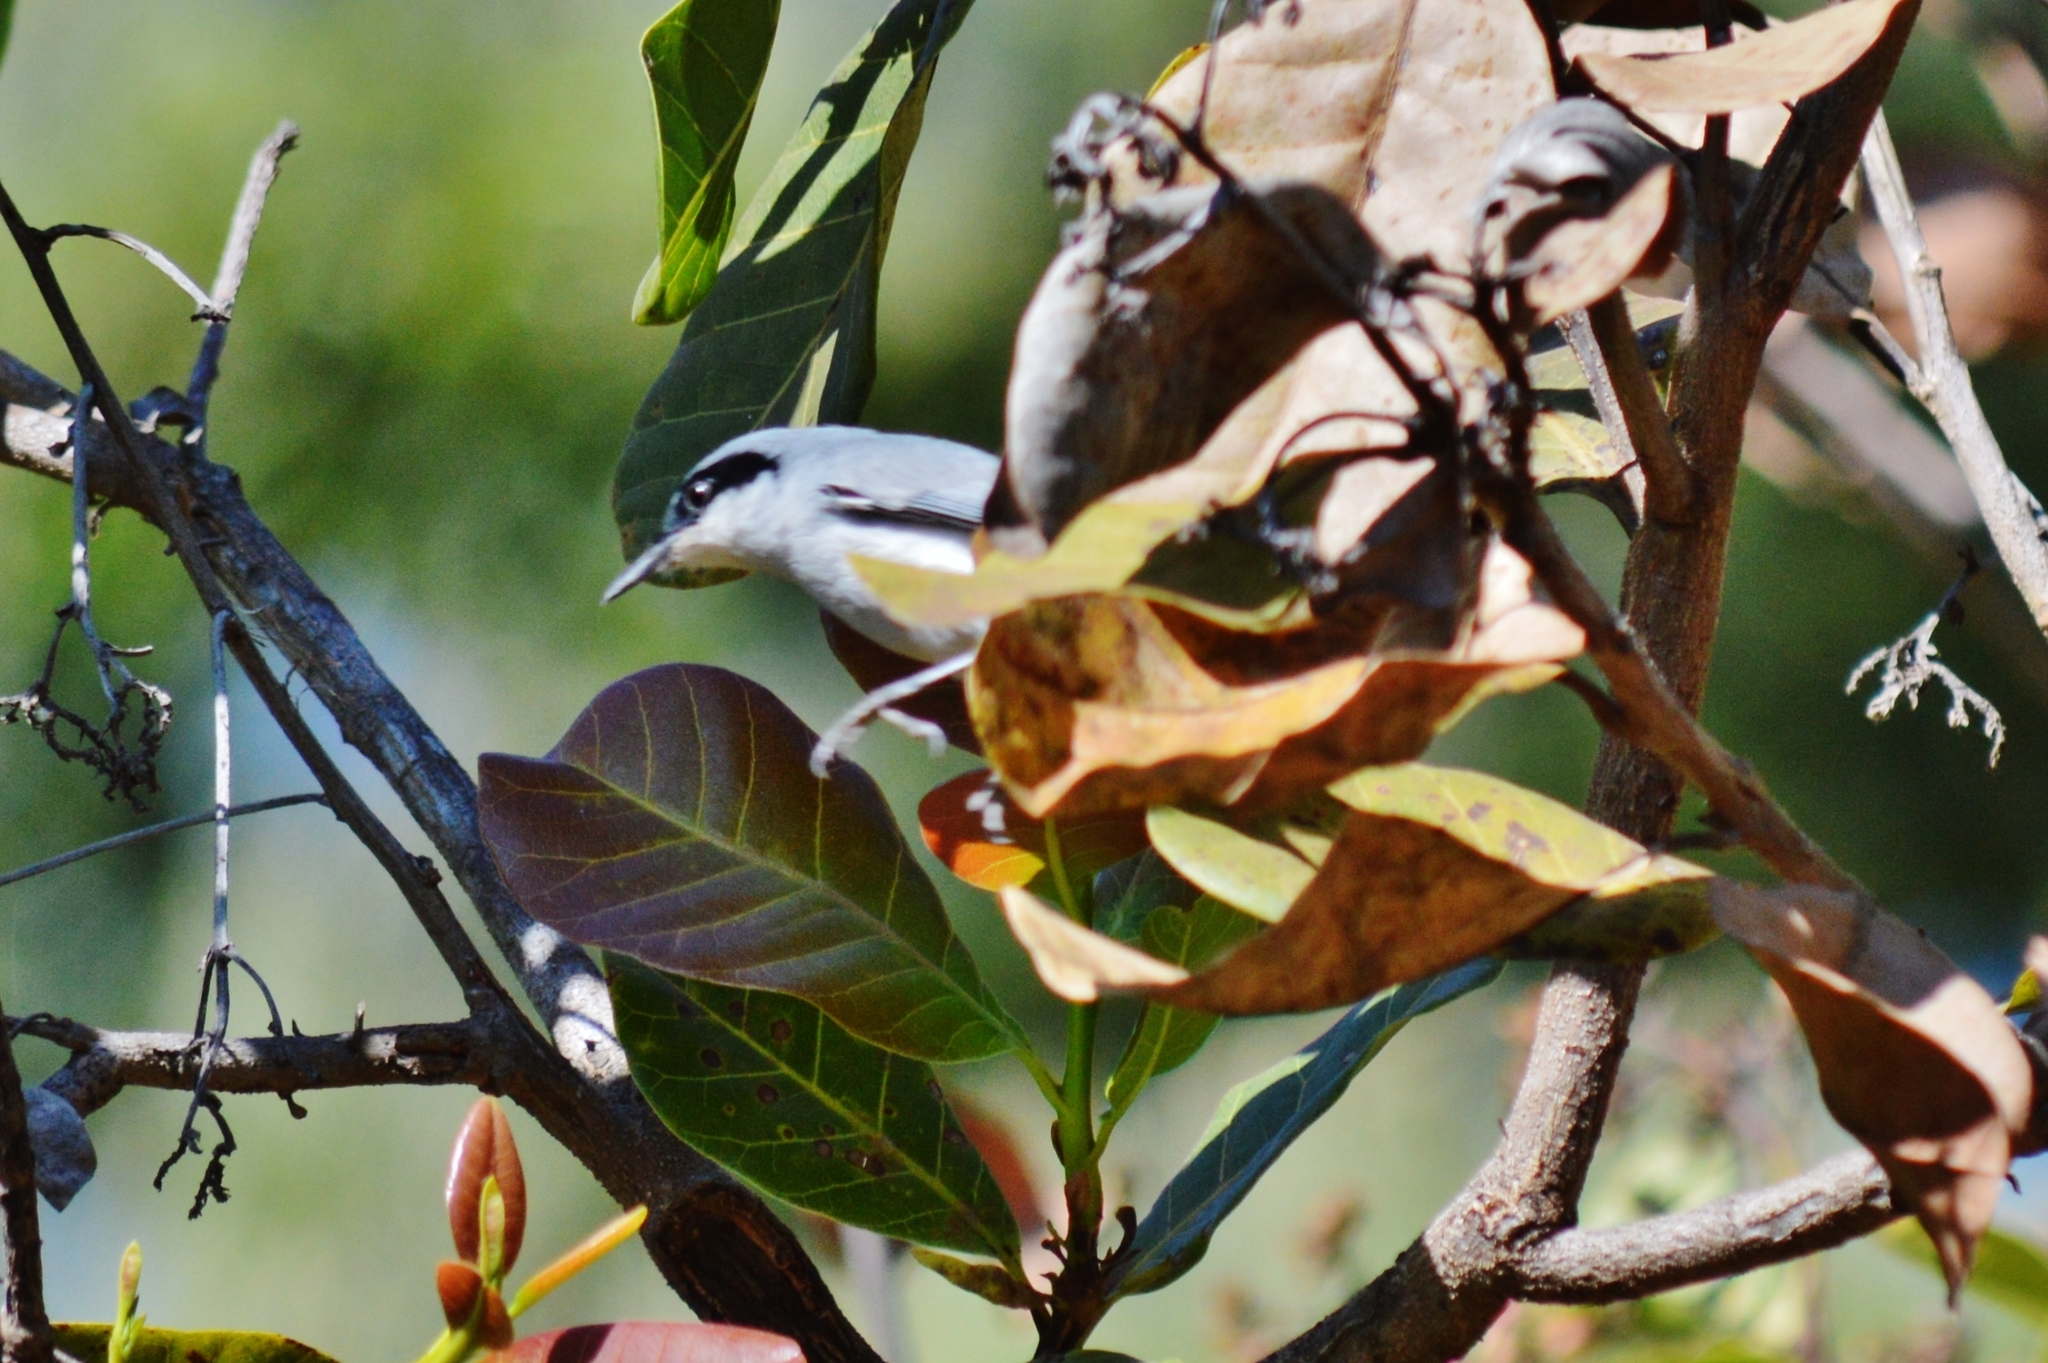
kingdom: Animalia
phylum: Chordata
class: Aves
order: Passeriformes
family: Polioptilidae
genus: Polioptila
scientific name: Polioptila dumicola
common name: Masked gnatcatcher
